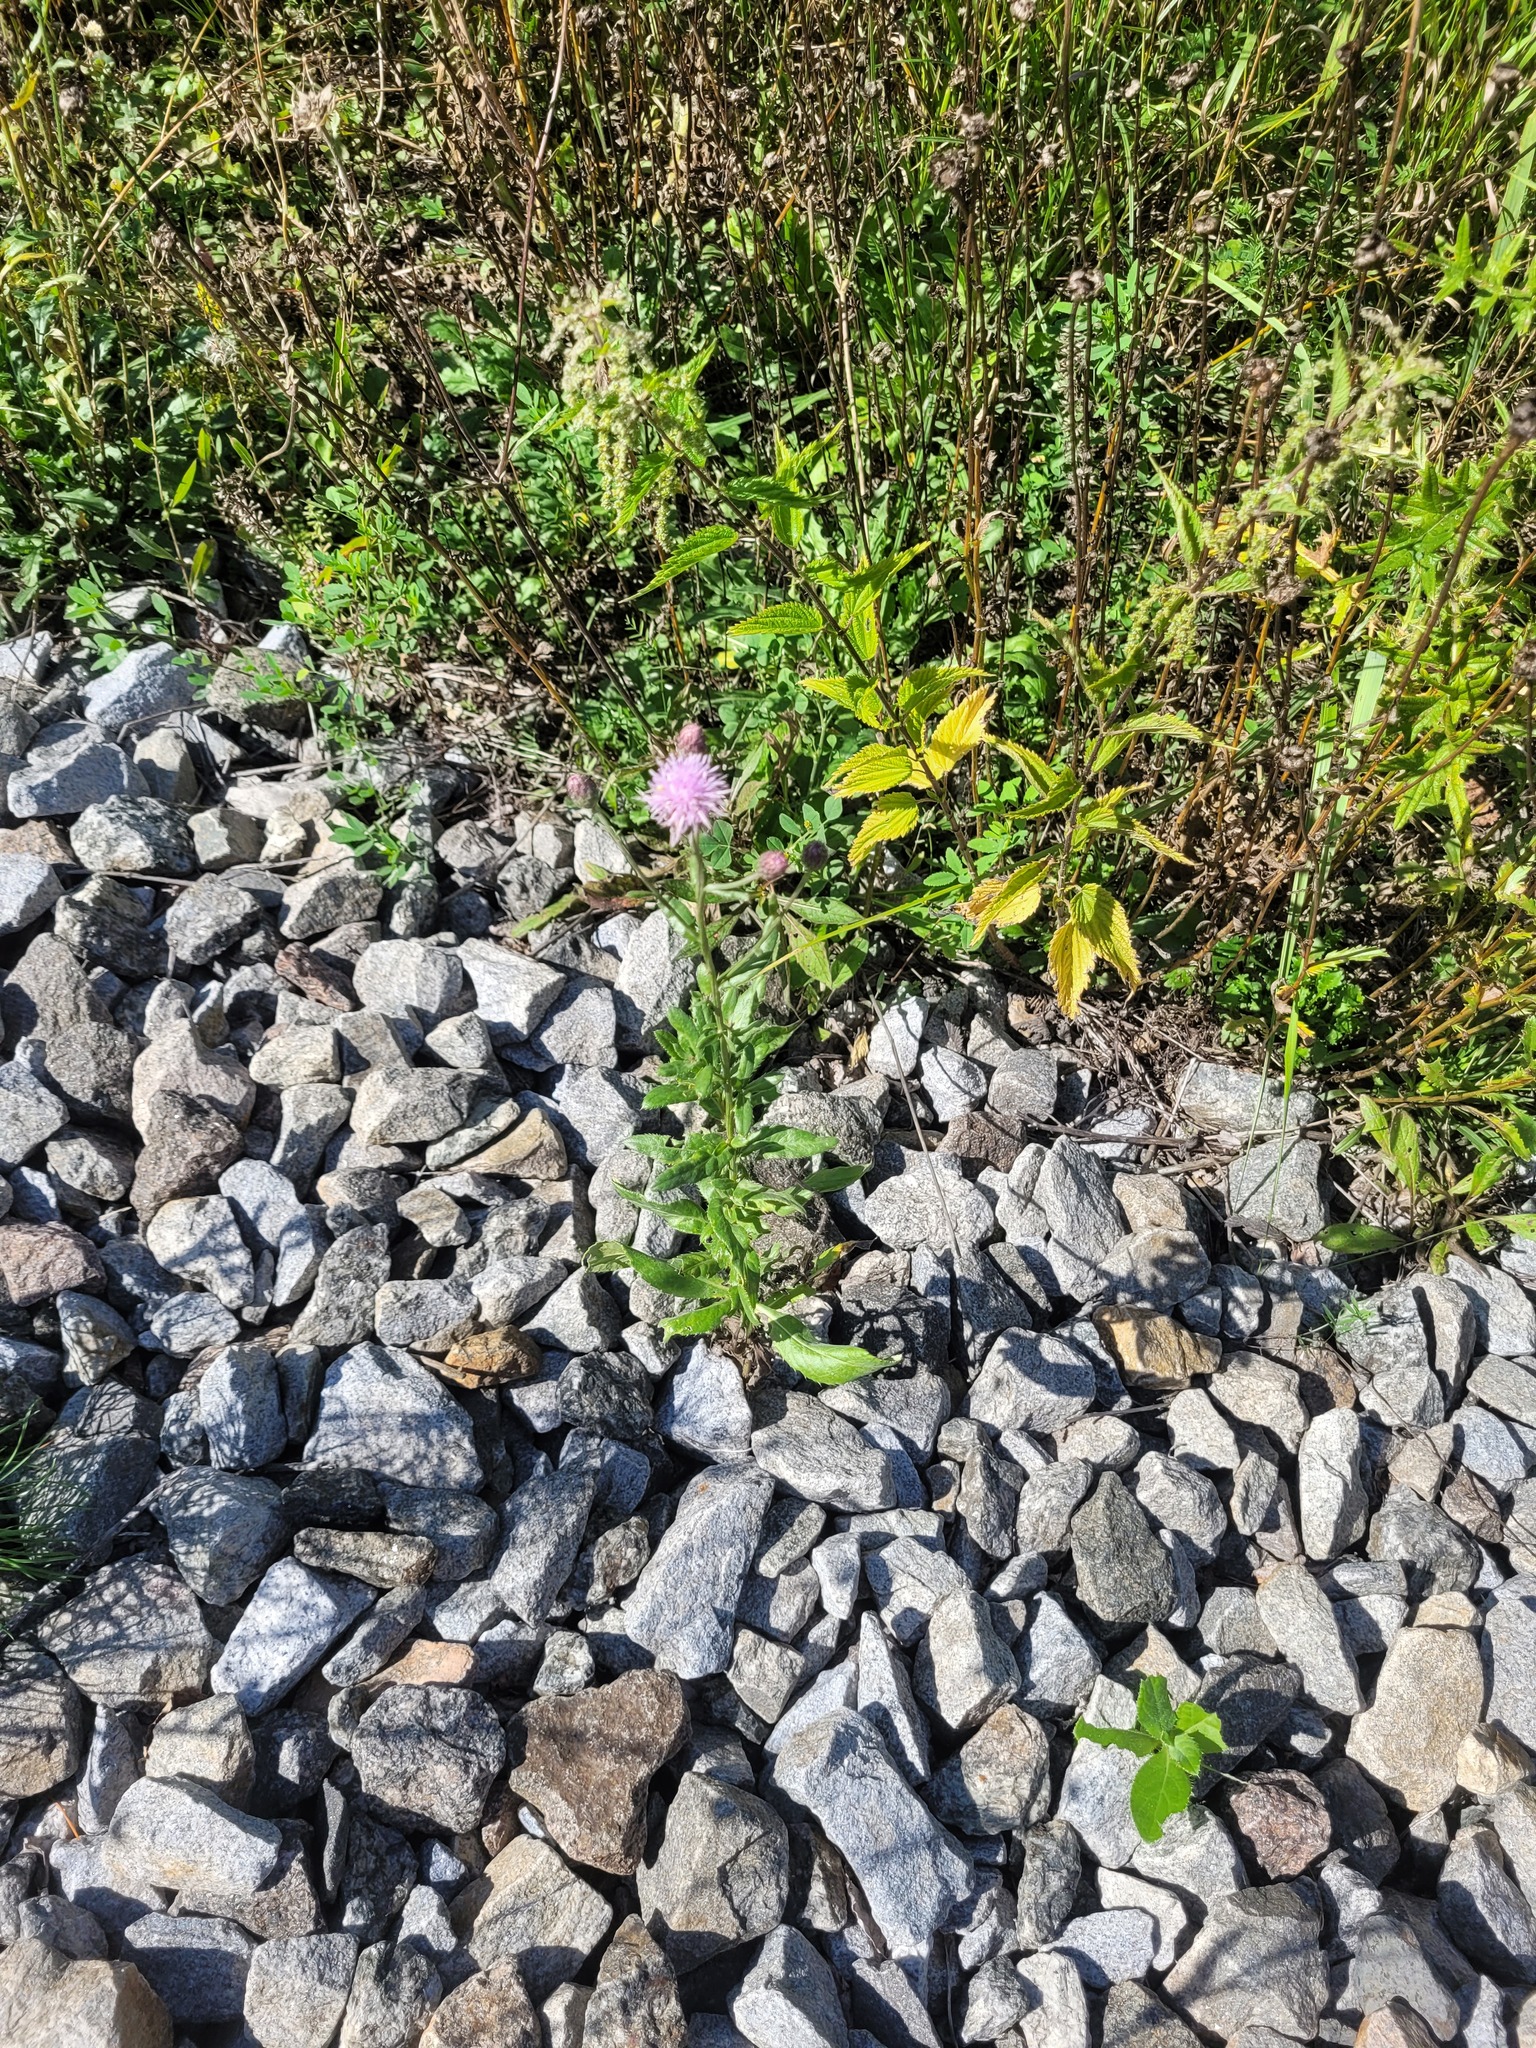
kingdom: Plantae
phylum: Tracheophyta
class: Magnoliopsida
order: Asterales
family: Asteraceae
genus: Cirsium
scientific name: Cirsium arvense
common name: Creeping thistle
